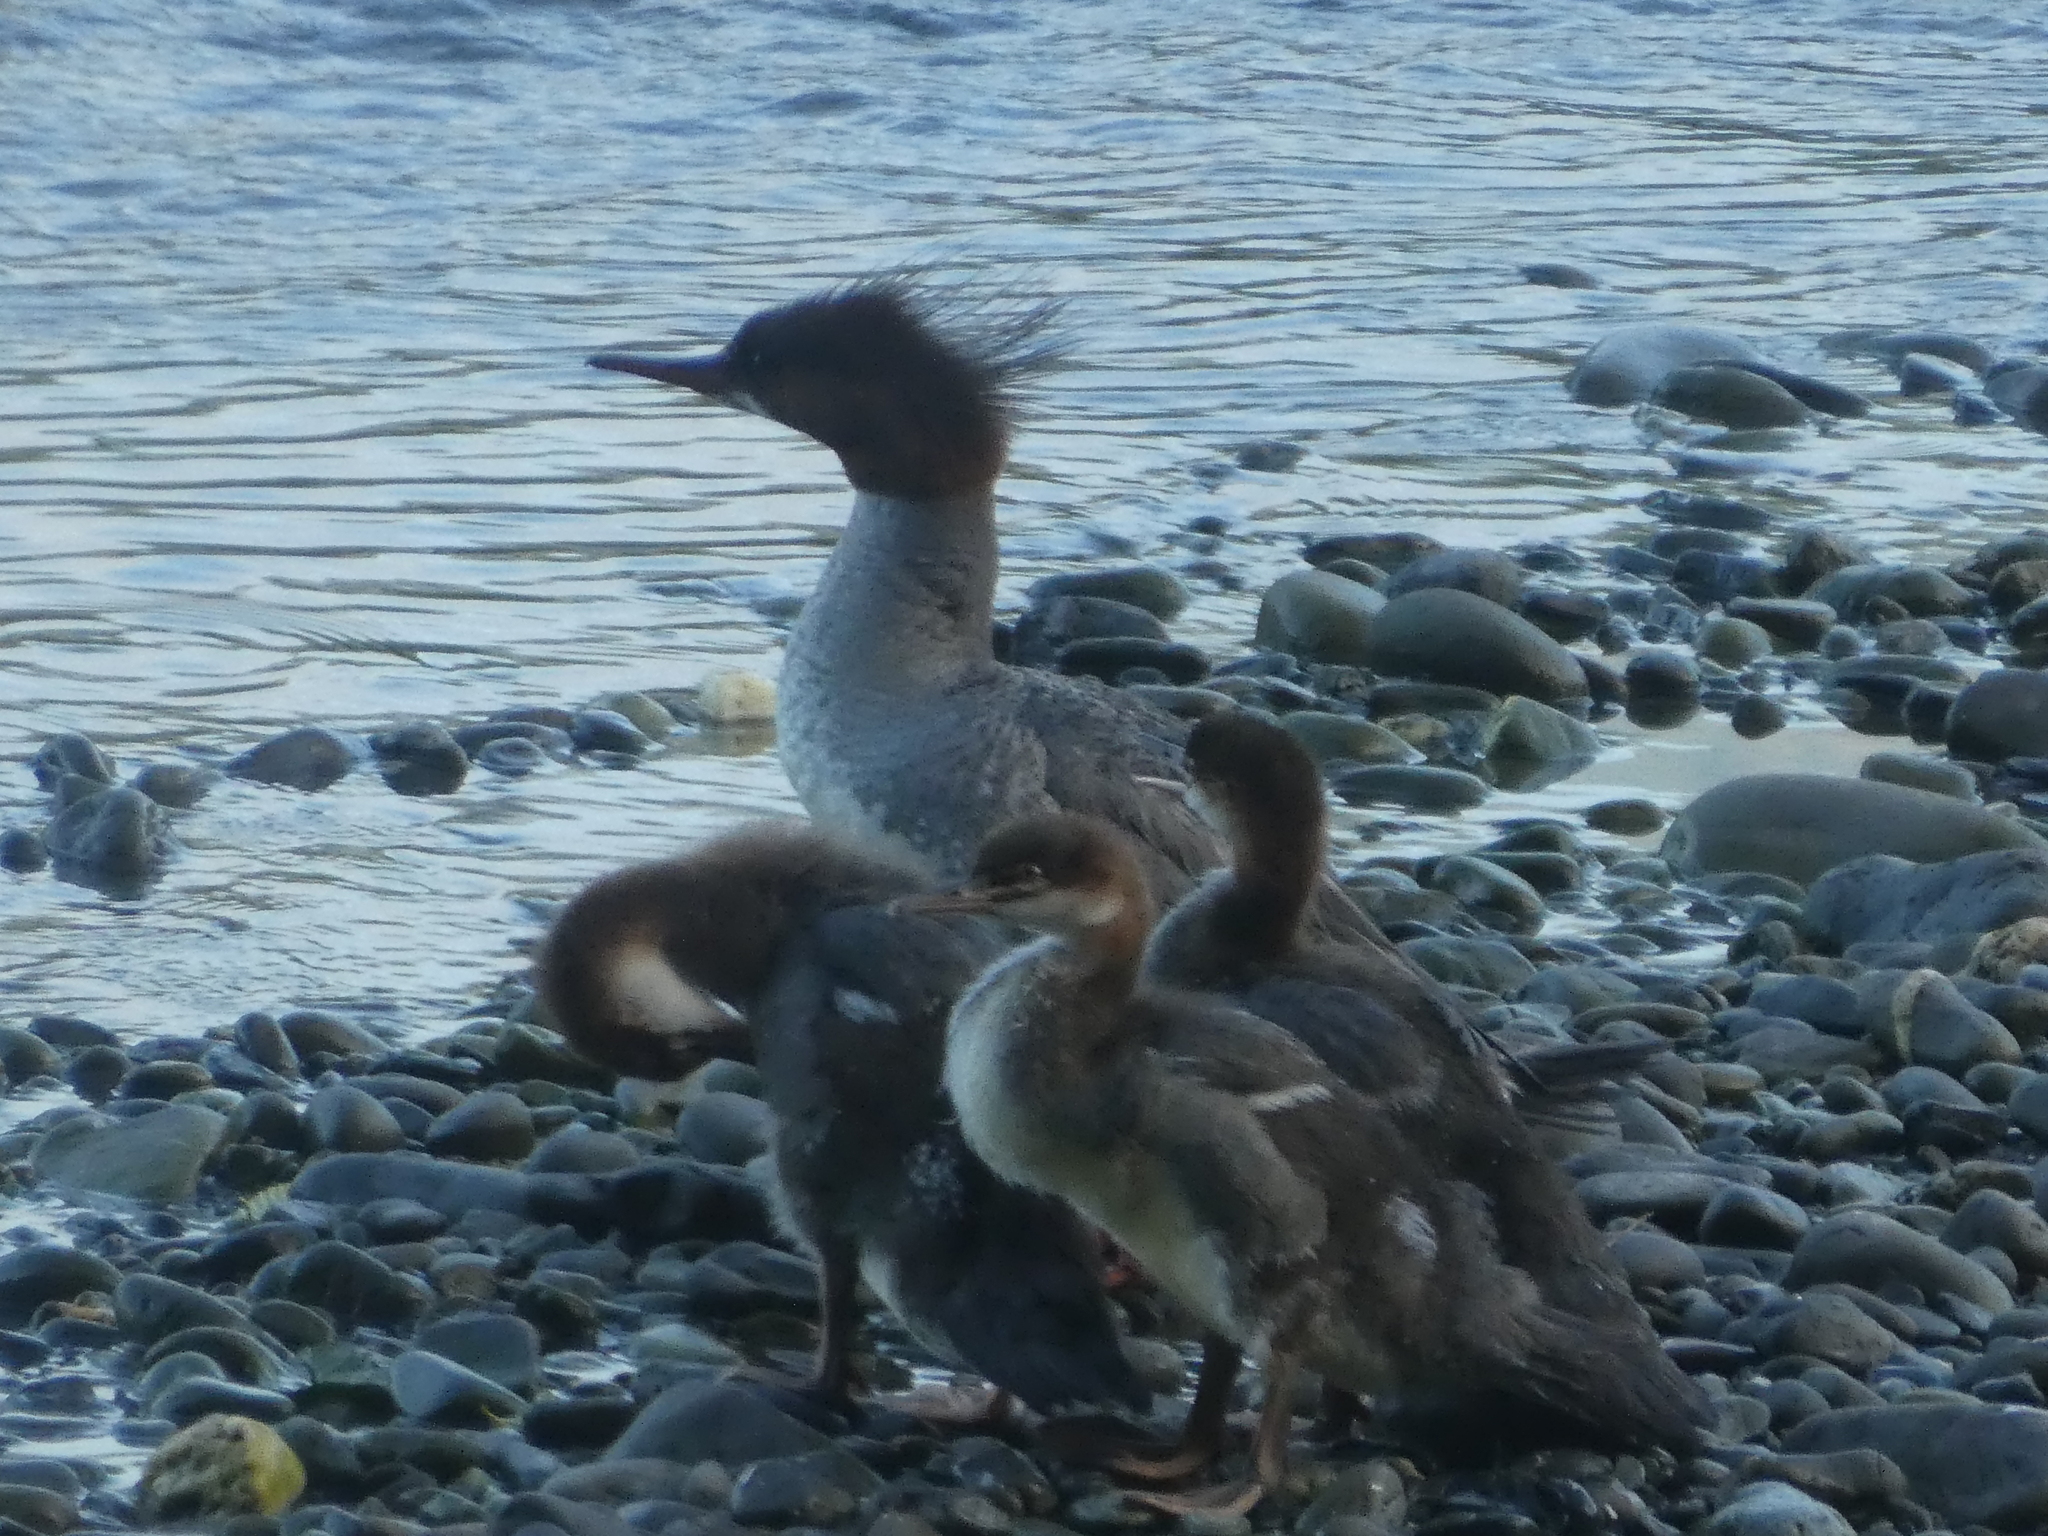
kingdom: Animalia
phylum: Chordata
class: Aves
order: Anseriformes
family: Anatidae
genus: Mergus
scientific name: Mergus merganser
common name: Common merganser
